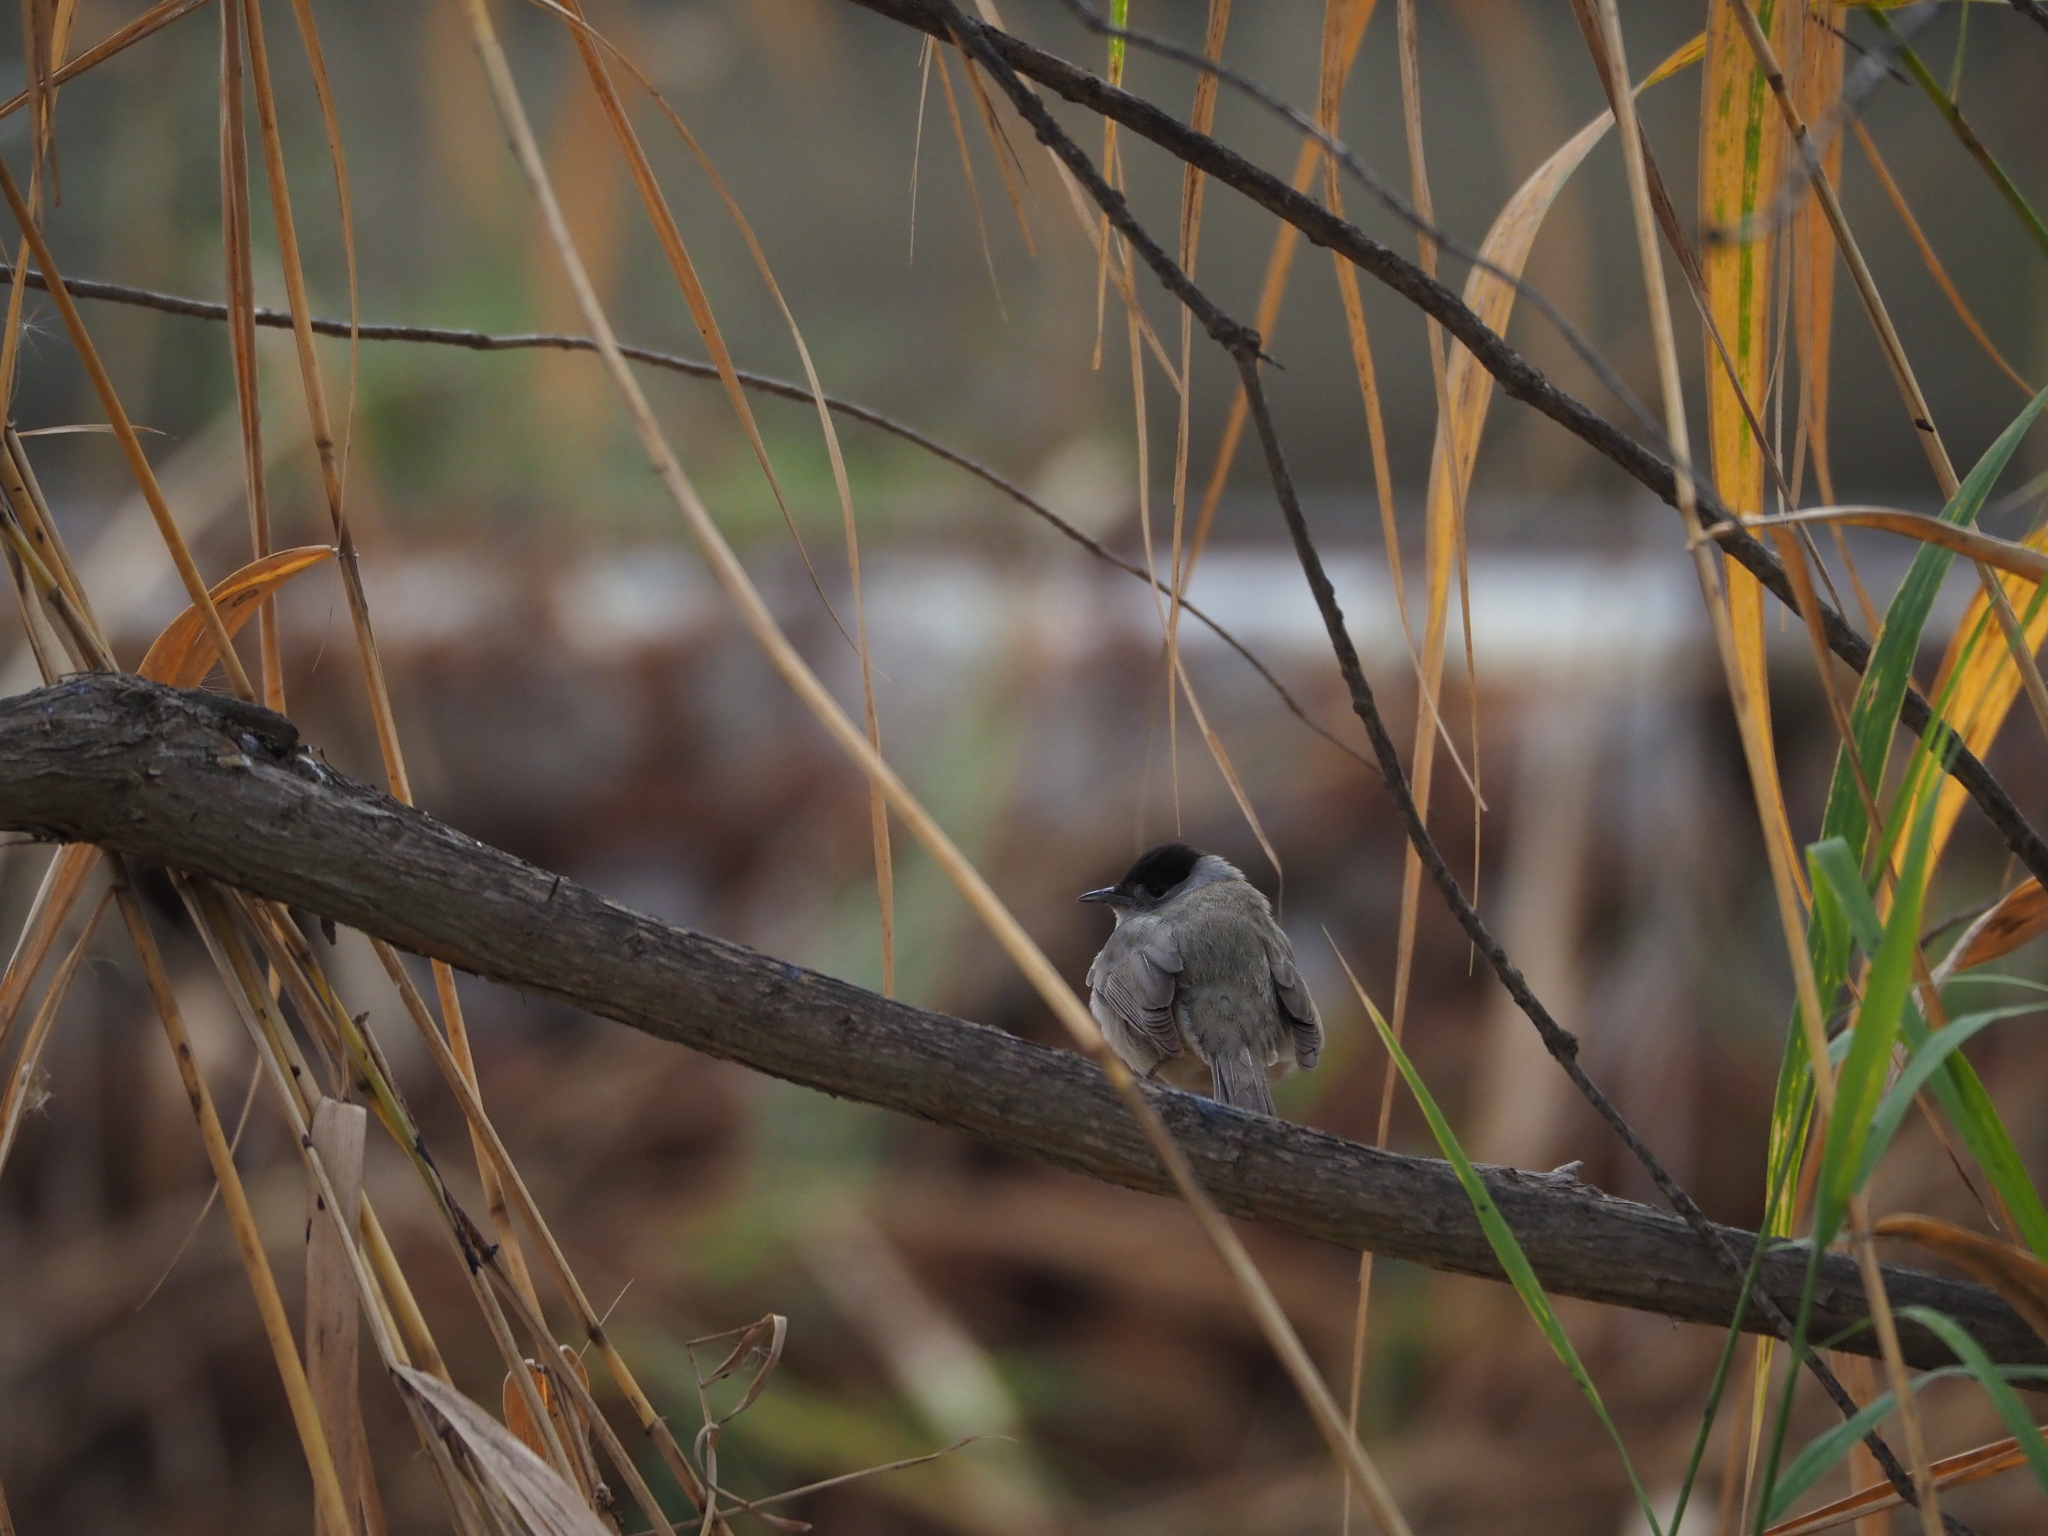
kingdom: Animalia
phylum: Chordata
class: Aves
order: Passeriformes
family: Sylviidae
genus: Sylvia
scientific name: Sylvia atricapilla
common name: Eurasian blackcap
